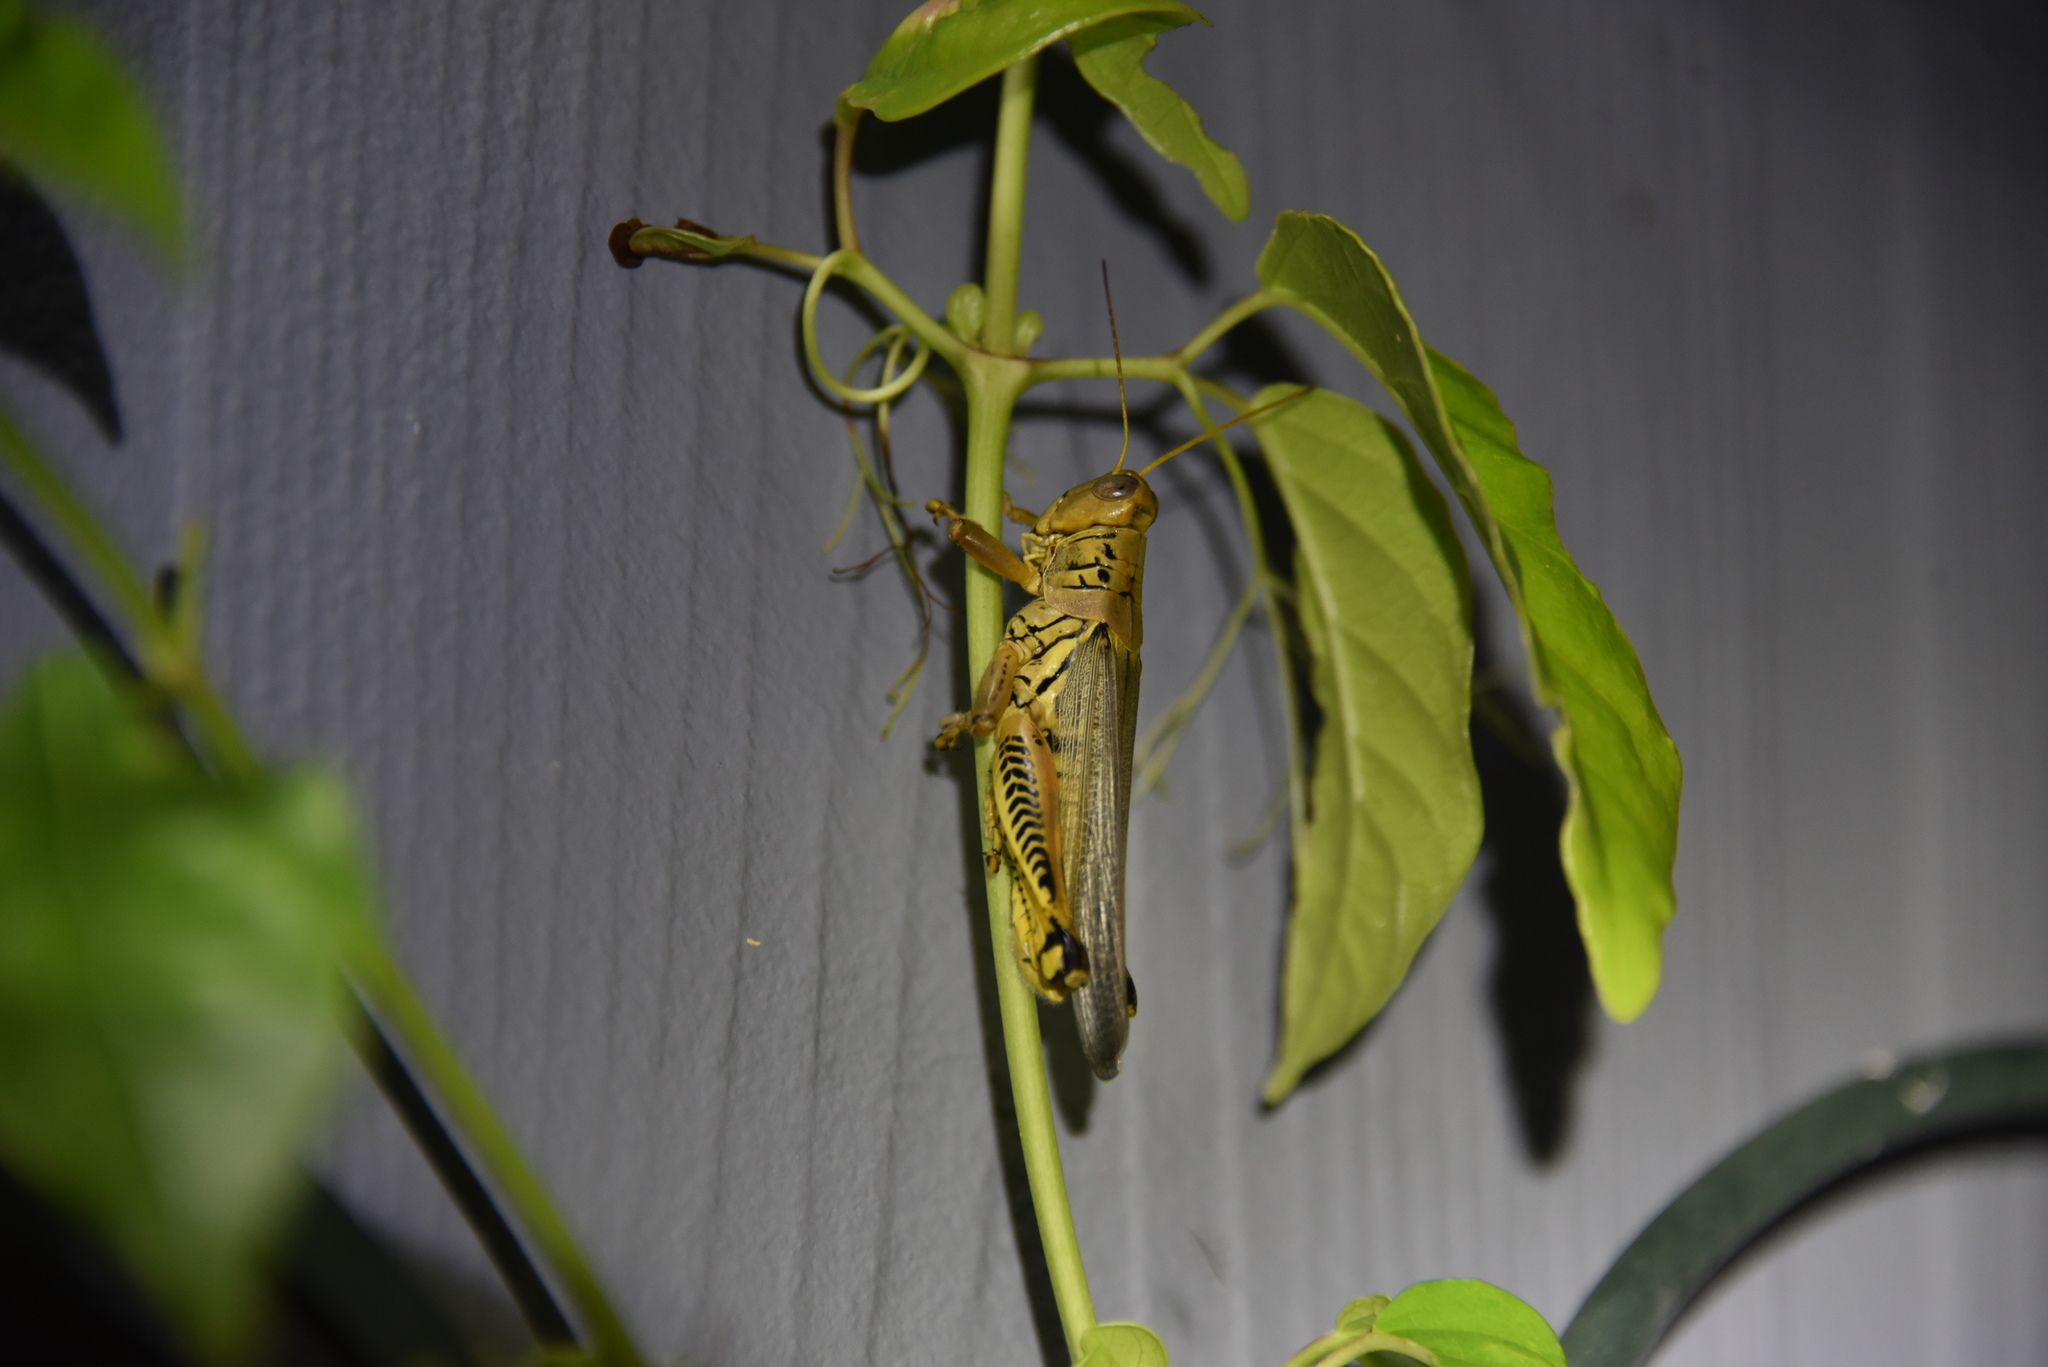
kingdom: Animalia
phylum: Arthropoda
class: Insecta
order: Orthoptera
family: Acrididae
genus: Melanoplus
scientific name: Melanoplus differentialis
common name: Differential grasshopper
